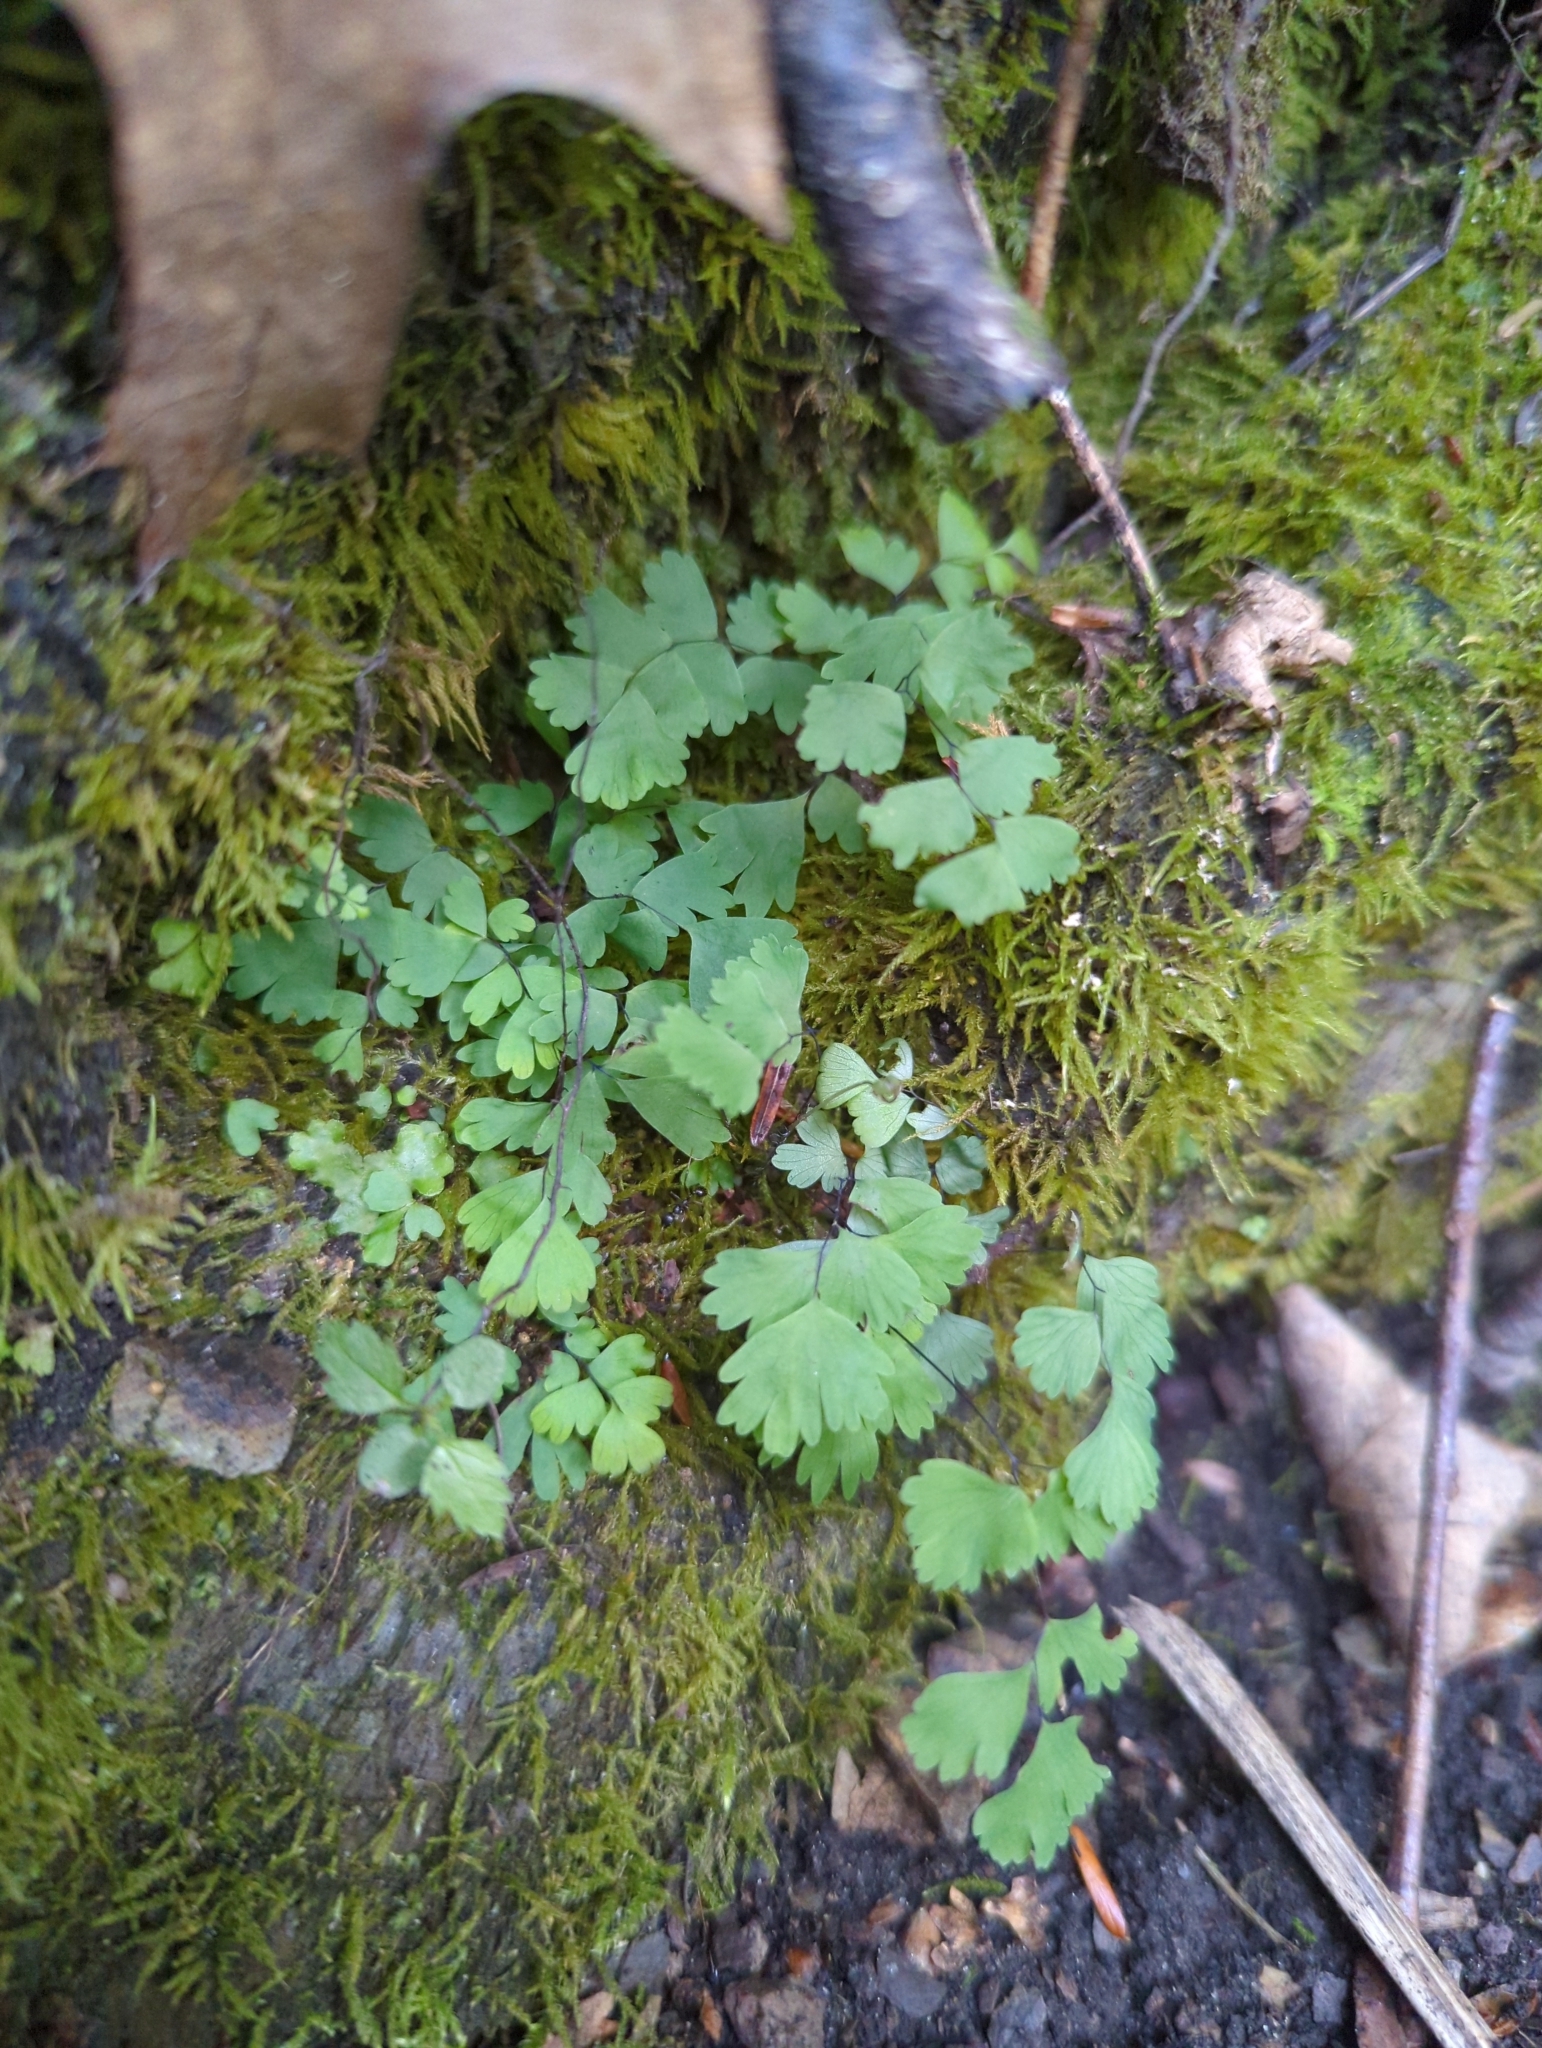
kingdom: Plantae
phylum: Tracheophyta
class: Polypodiopsida
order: Polypodiales
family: Pteridaceae
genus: Adiantum
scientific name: Adiantum pedatum
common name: Five-finger fern
